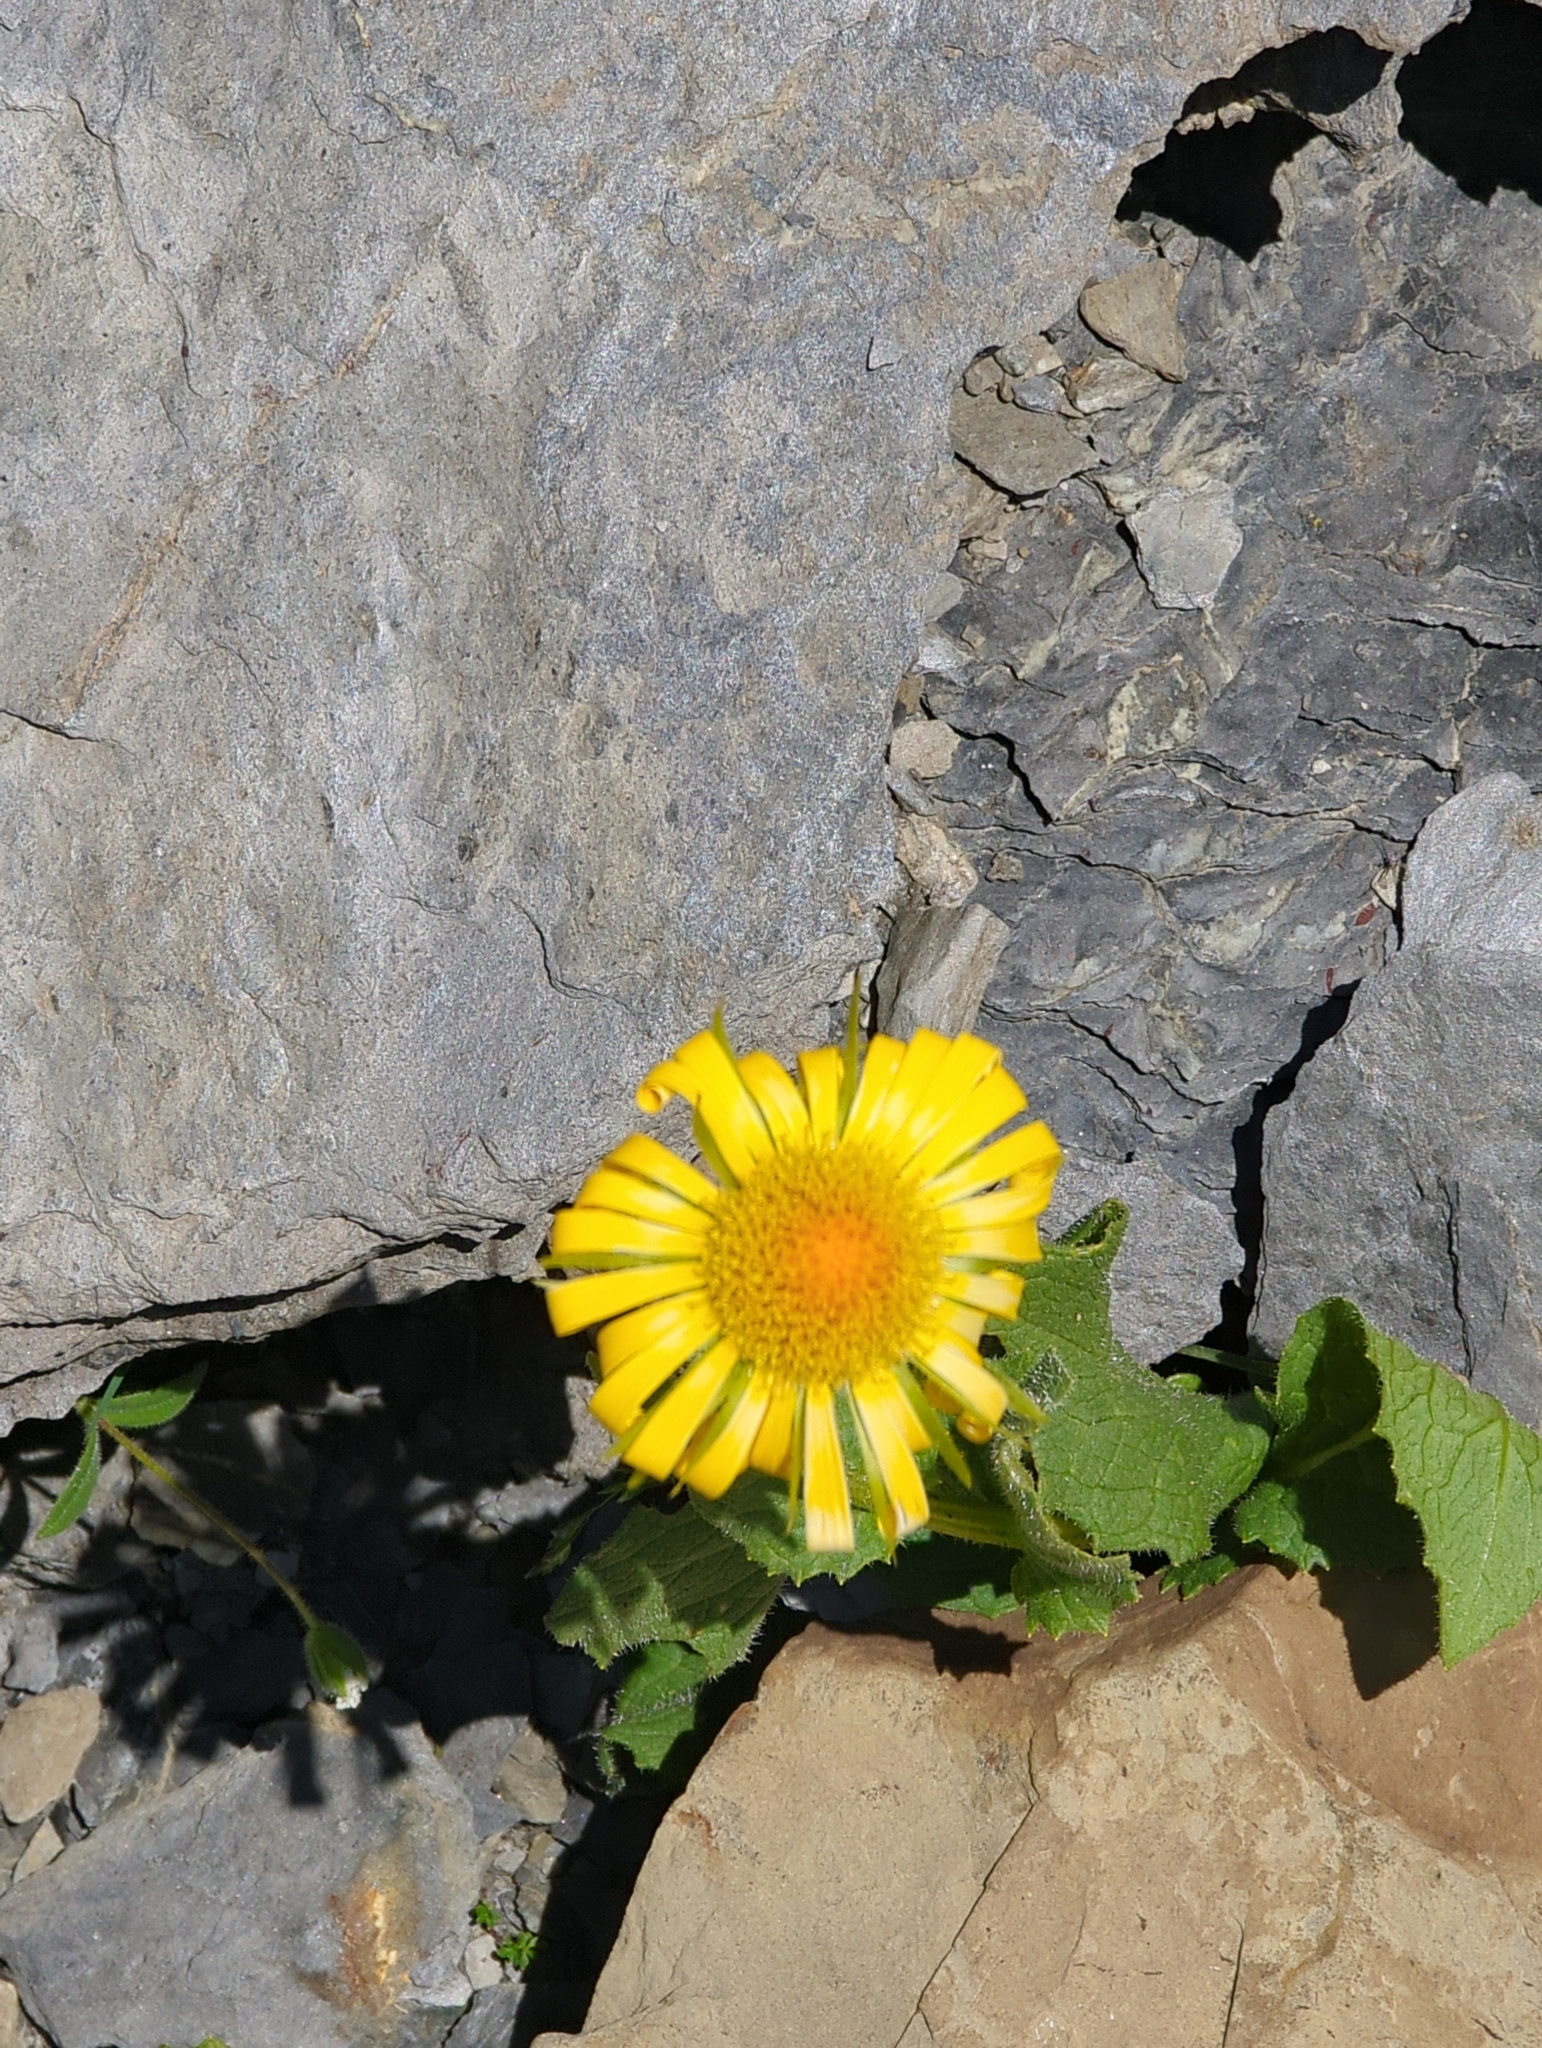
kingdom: Plantae
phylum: Tracheophyta
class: Magnoliopsida
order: Asterales
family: Asteraceae
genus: Doronicum
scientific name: Doronicum grandiflorum
